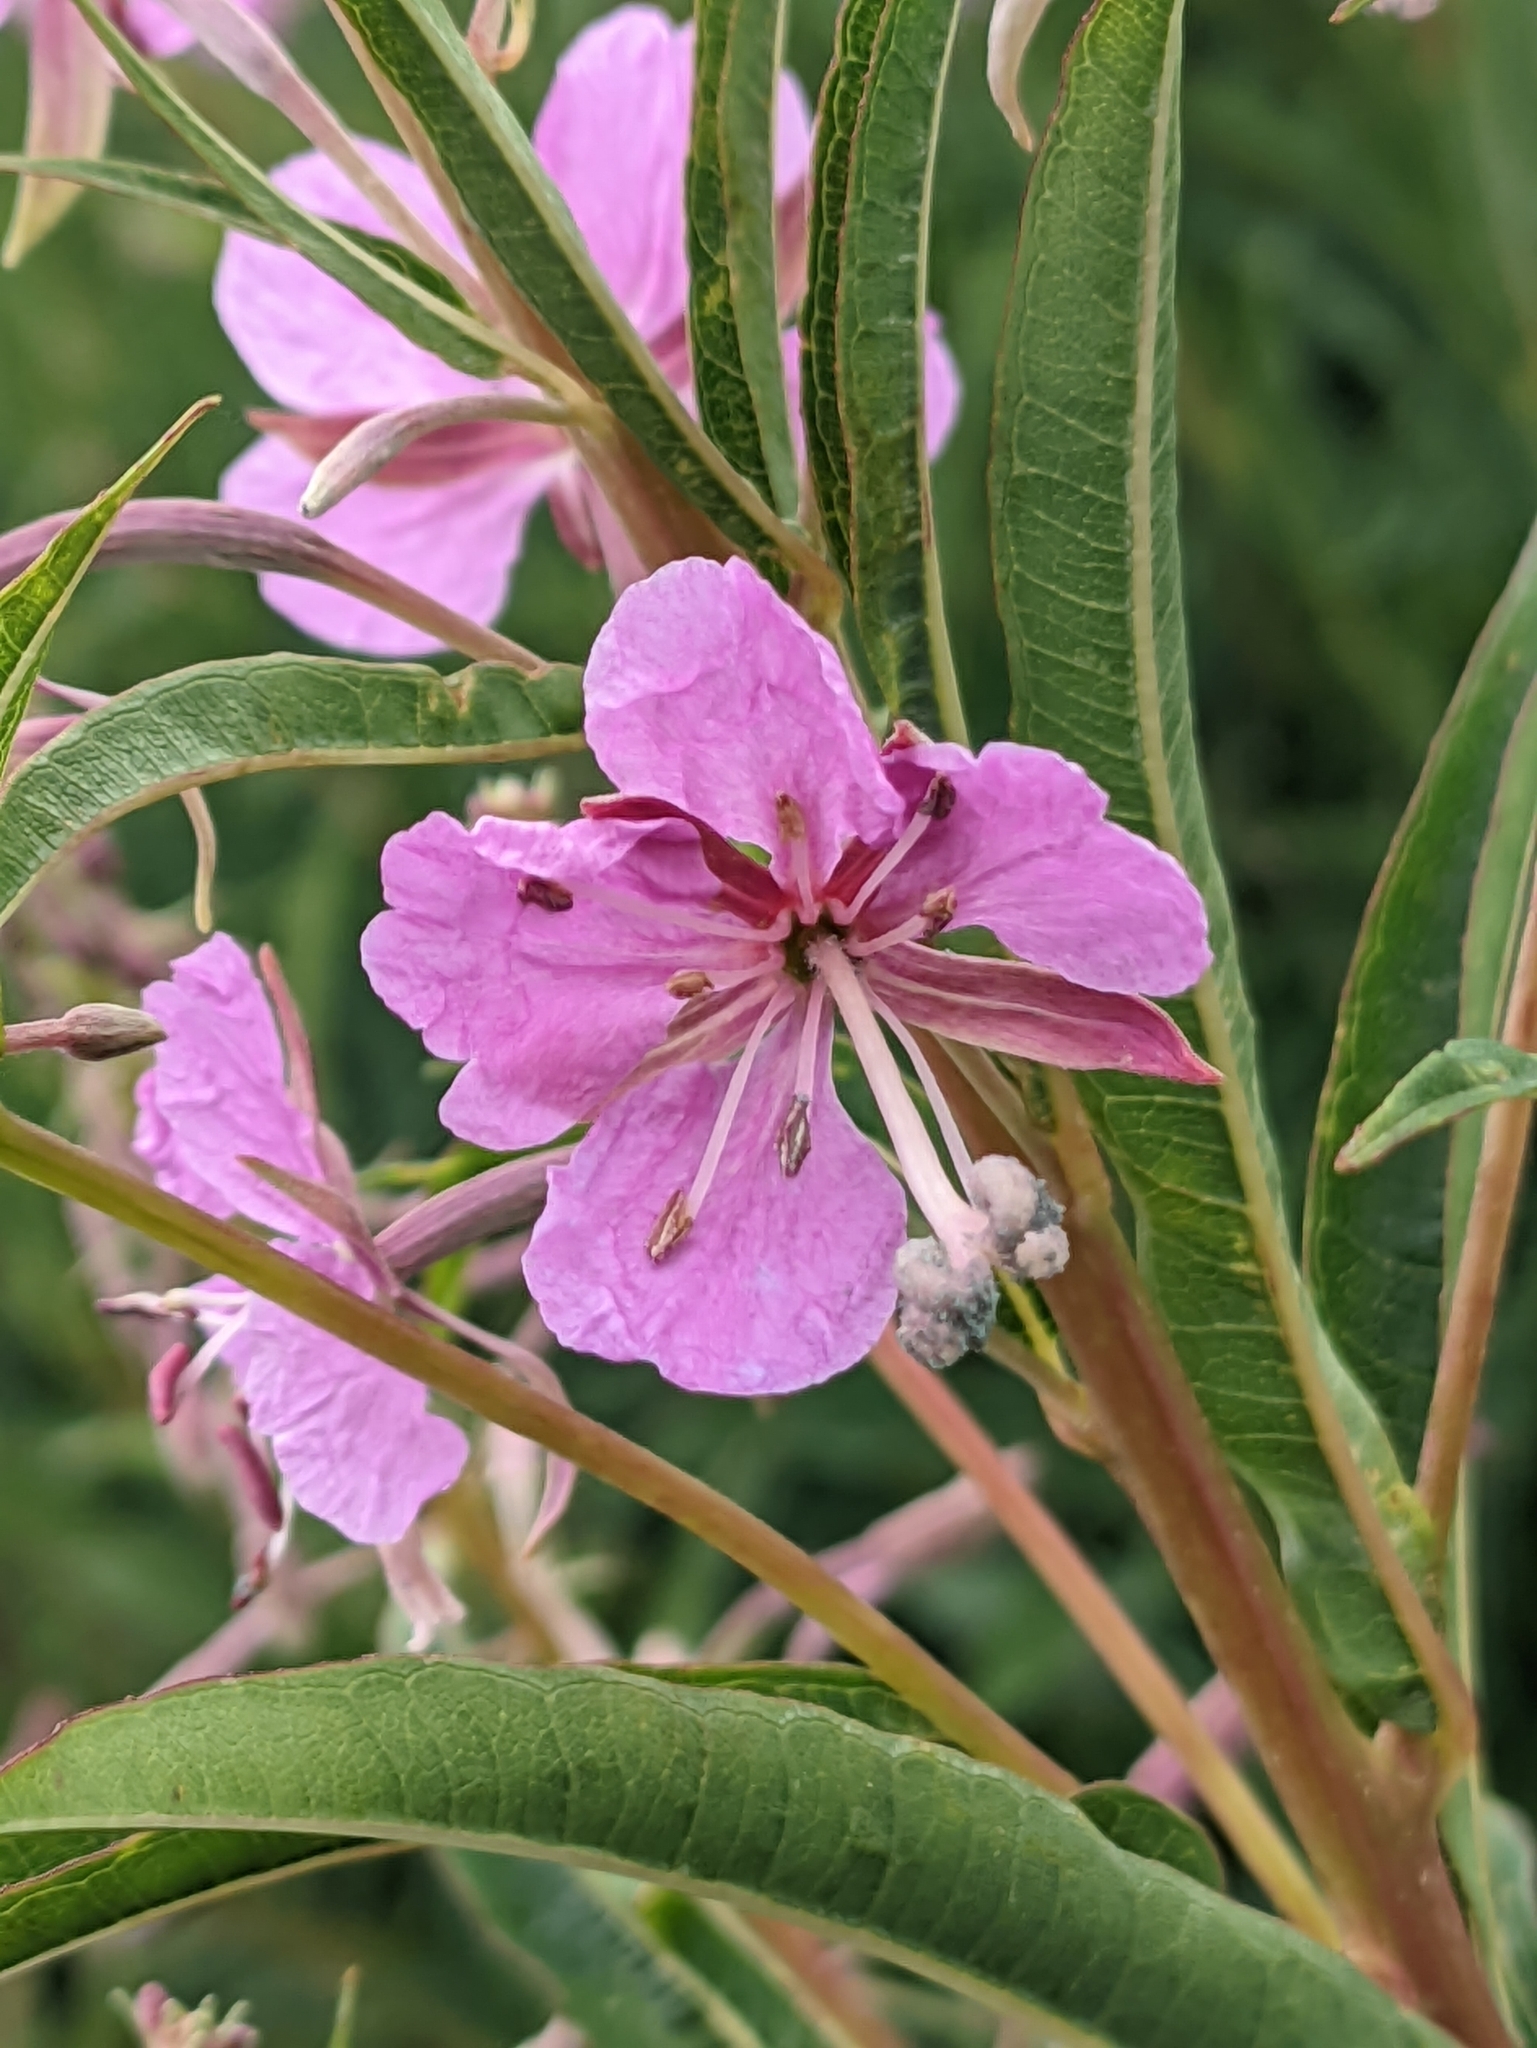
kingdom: Plantae
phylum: Tracheophyta
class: Magnoliopsida
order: Myrtales
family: Onagraceae
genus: Chamaenerion
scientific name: Chamaenerion angustifolium
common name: Fireweed
